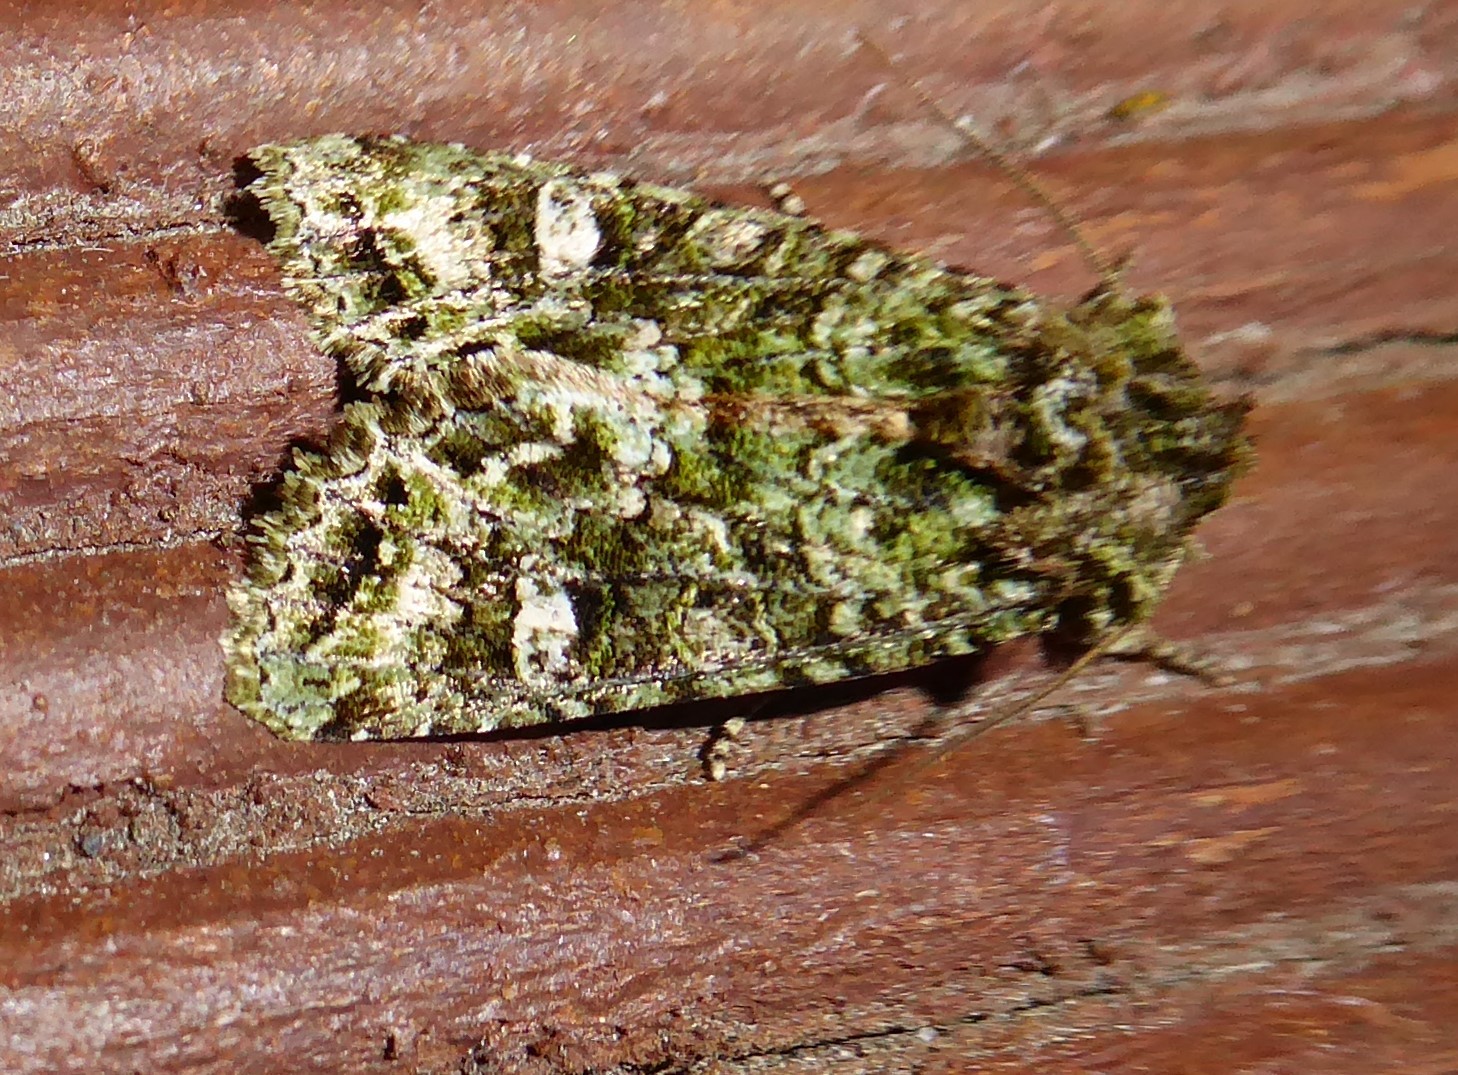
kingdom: Animalia
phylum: Arthropoda
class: Insecta
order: Lepidoptera
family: Noctuidae
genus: Ichneutica
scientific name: Ichneutica
